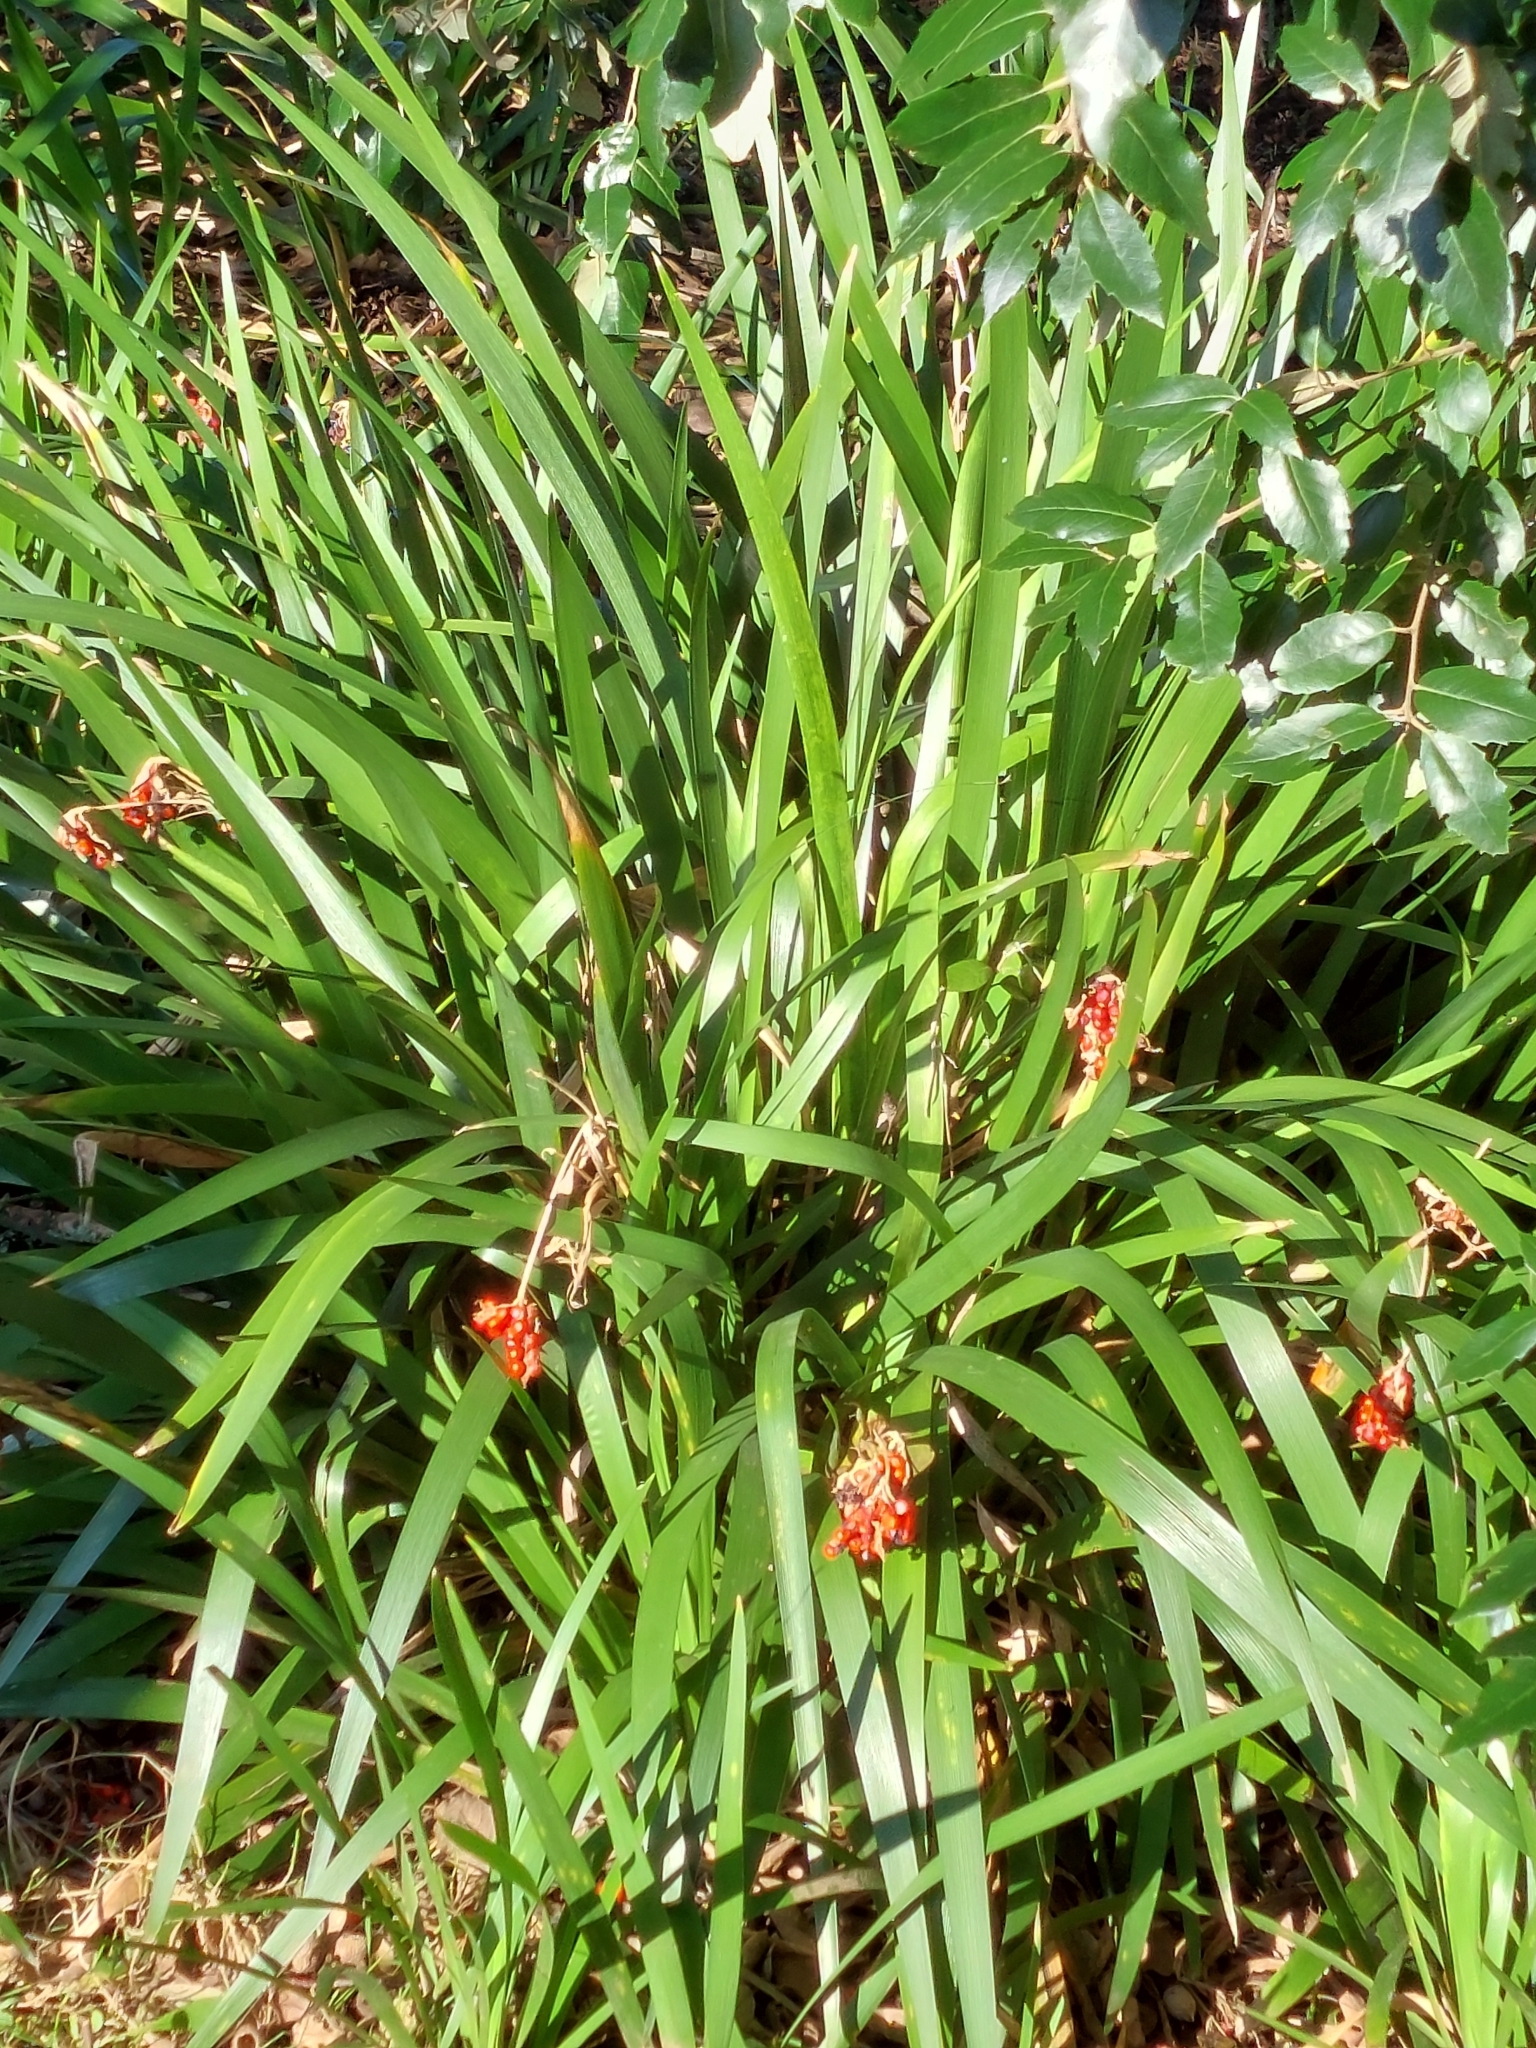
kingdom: Plantae
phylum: Tracheophyta
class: Liliopsida
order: Asparagales
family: Iridaceae
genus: Iris
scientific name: Iris foetidissima
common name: Stinking iris
